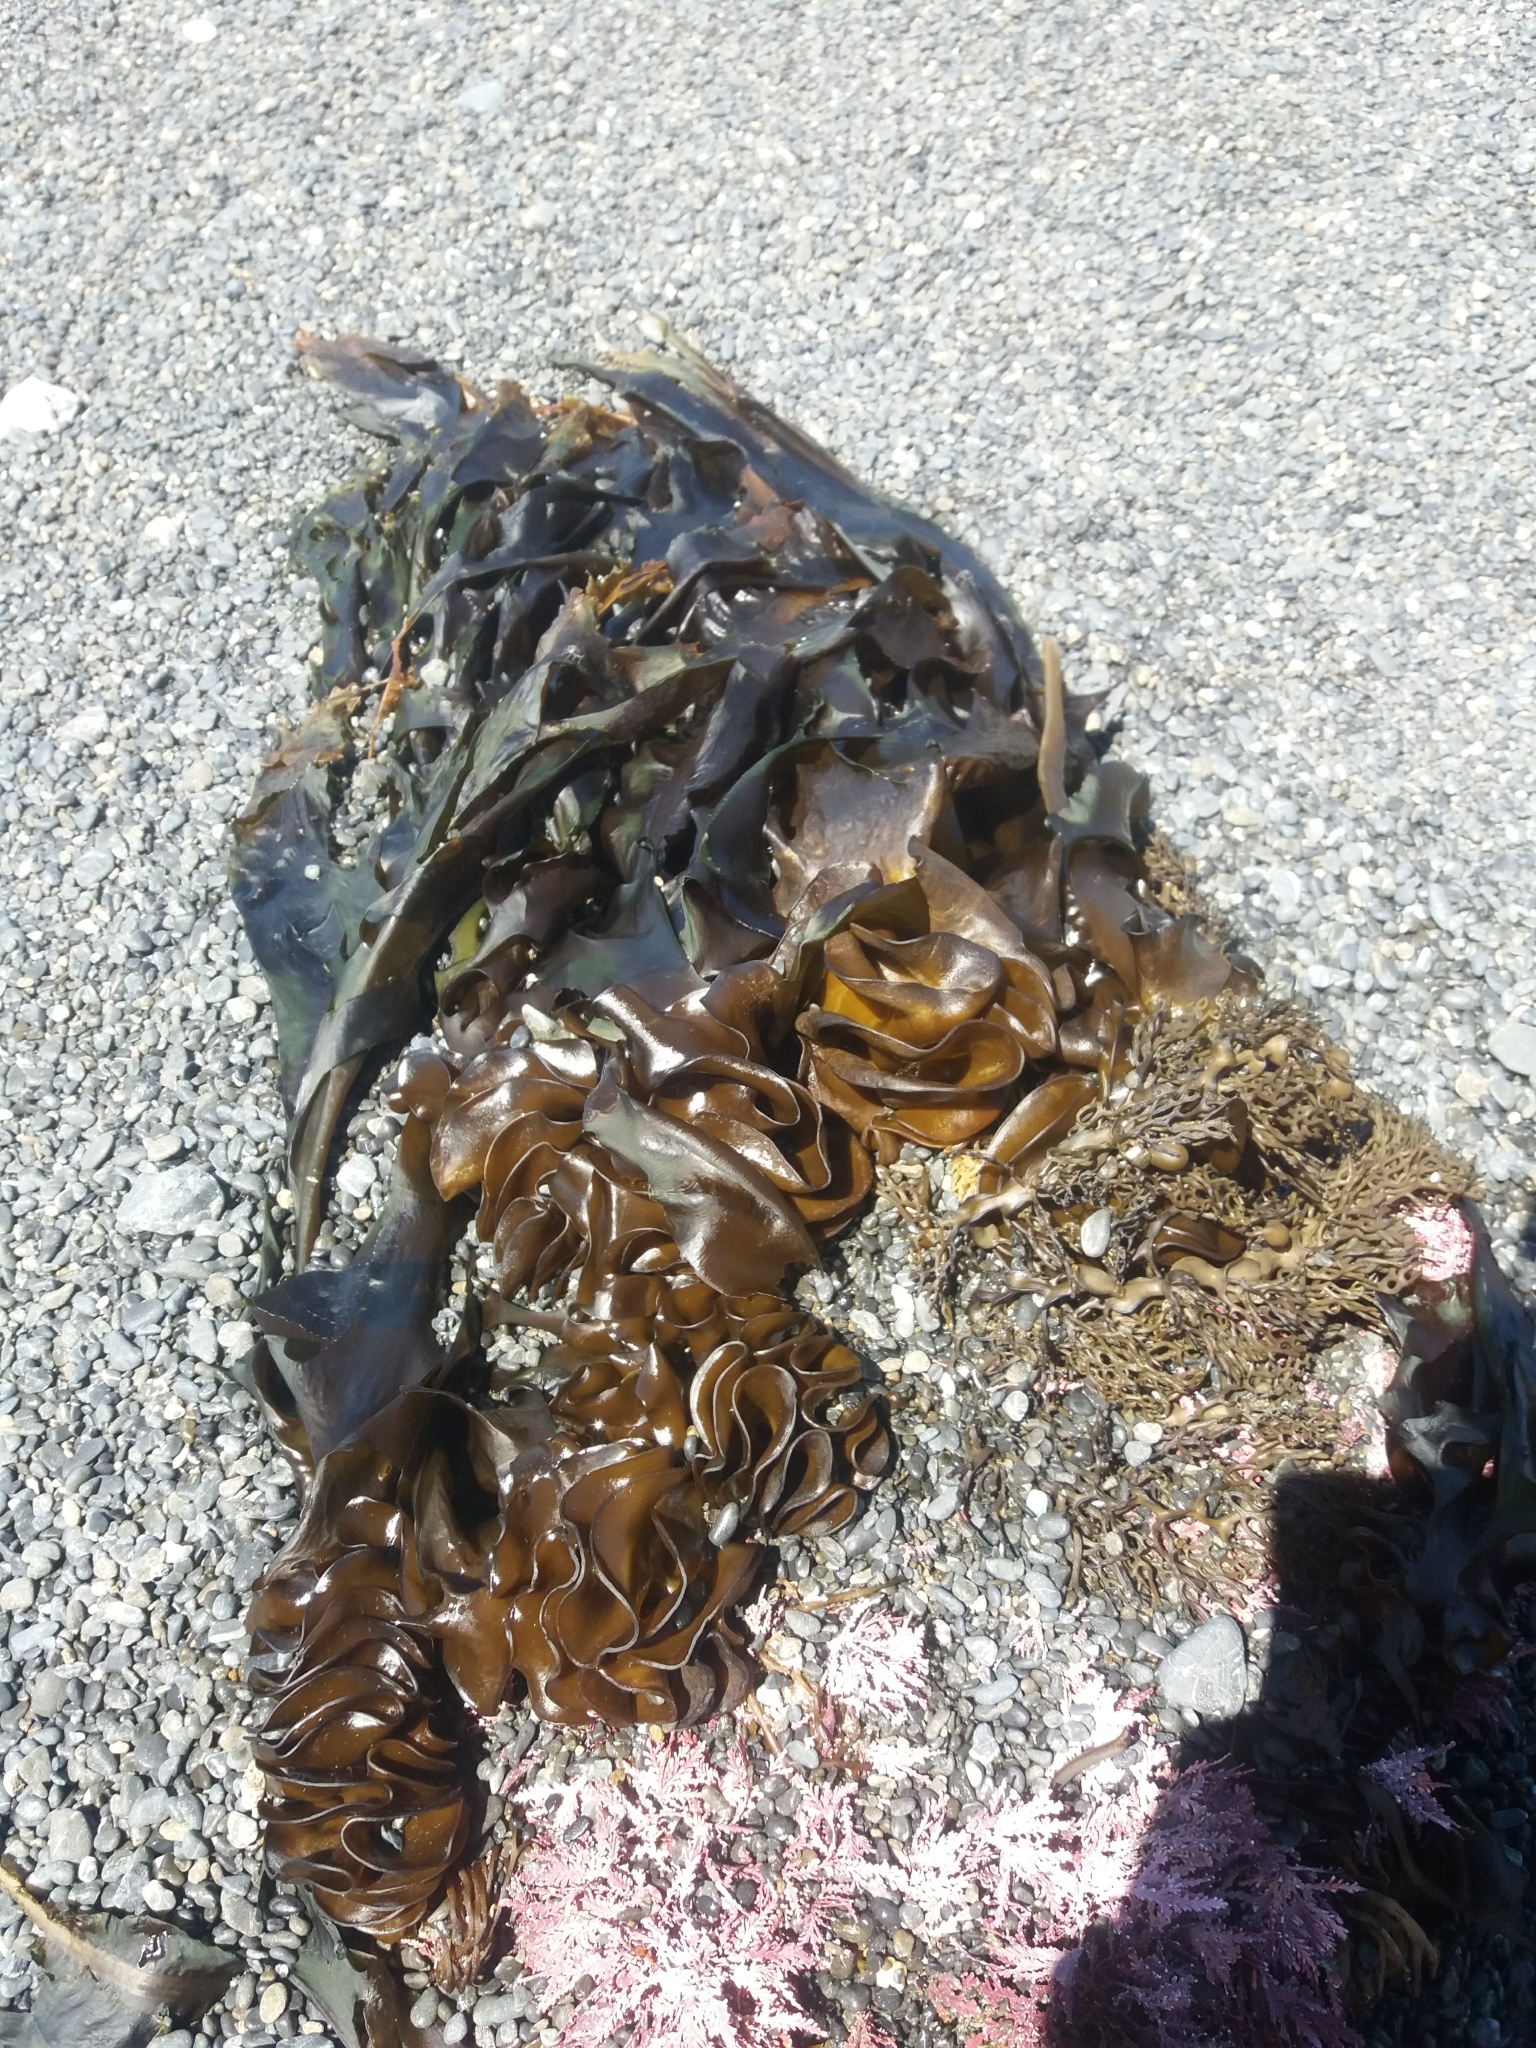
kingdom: Chromista
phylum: Ochrophyta
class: Phaeophyceae
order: Laminariales
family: Alariaceae
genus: Undaria
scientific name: Undaria pinnatifida
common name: Asian kelp
